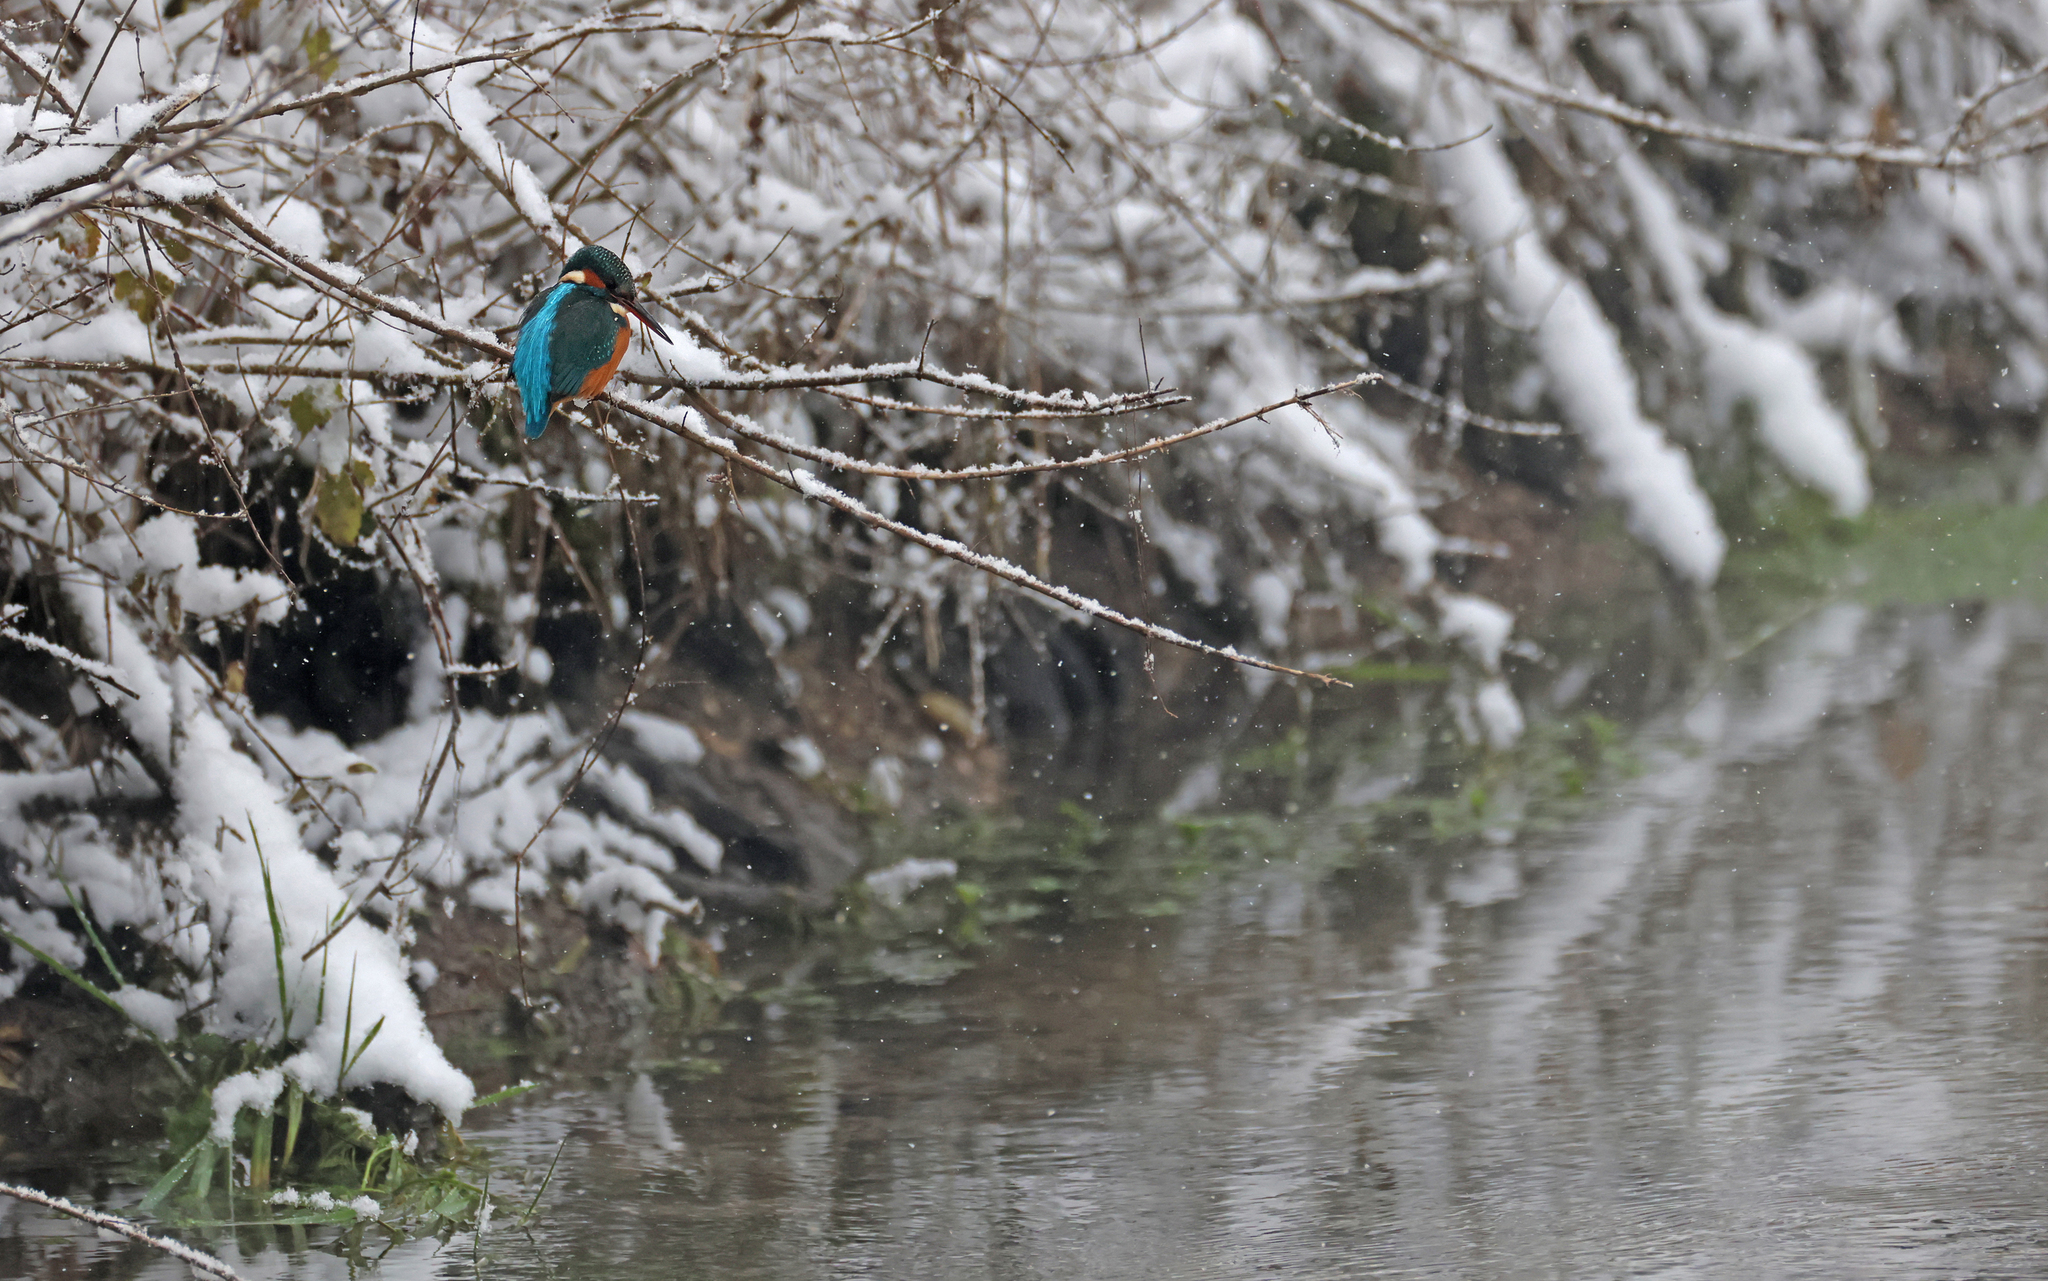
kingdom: Animalia
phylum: Chordata
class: Aves
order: Coraciiformes
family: Alcedinidae
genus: Alcedo
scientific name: Alcedo atthis
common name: Common kingfisher
